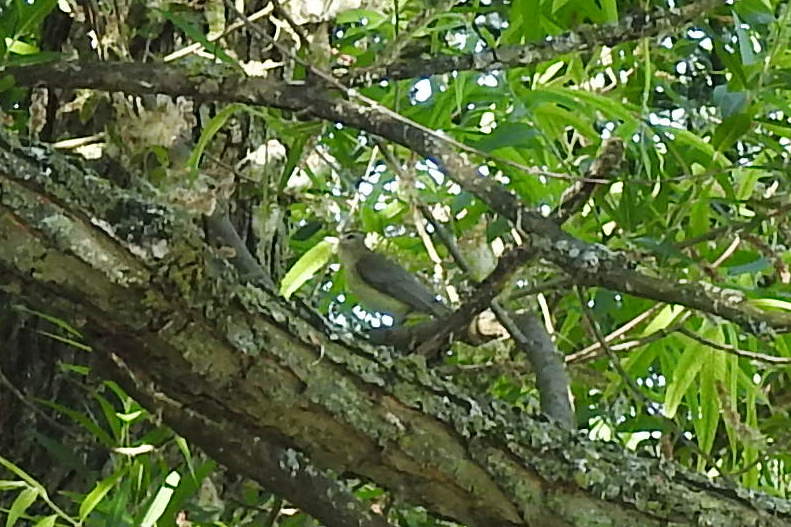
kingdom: Animalia
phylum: Chordata
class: Aves
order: Passeriformes
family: Vireonidae
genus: Vireo
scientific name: Vireo gilvus
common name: Warbling vireo
